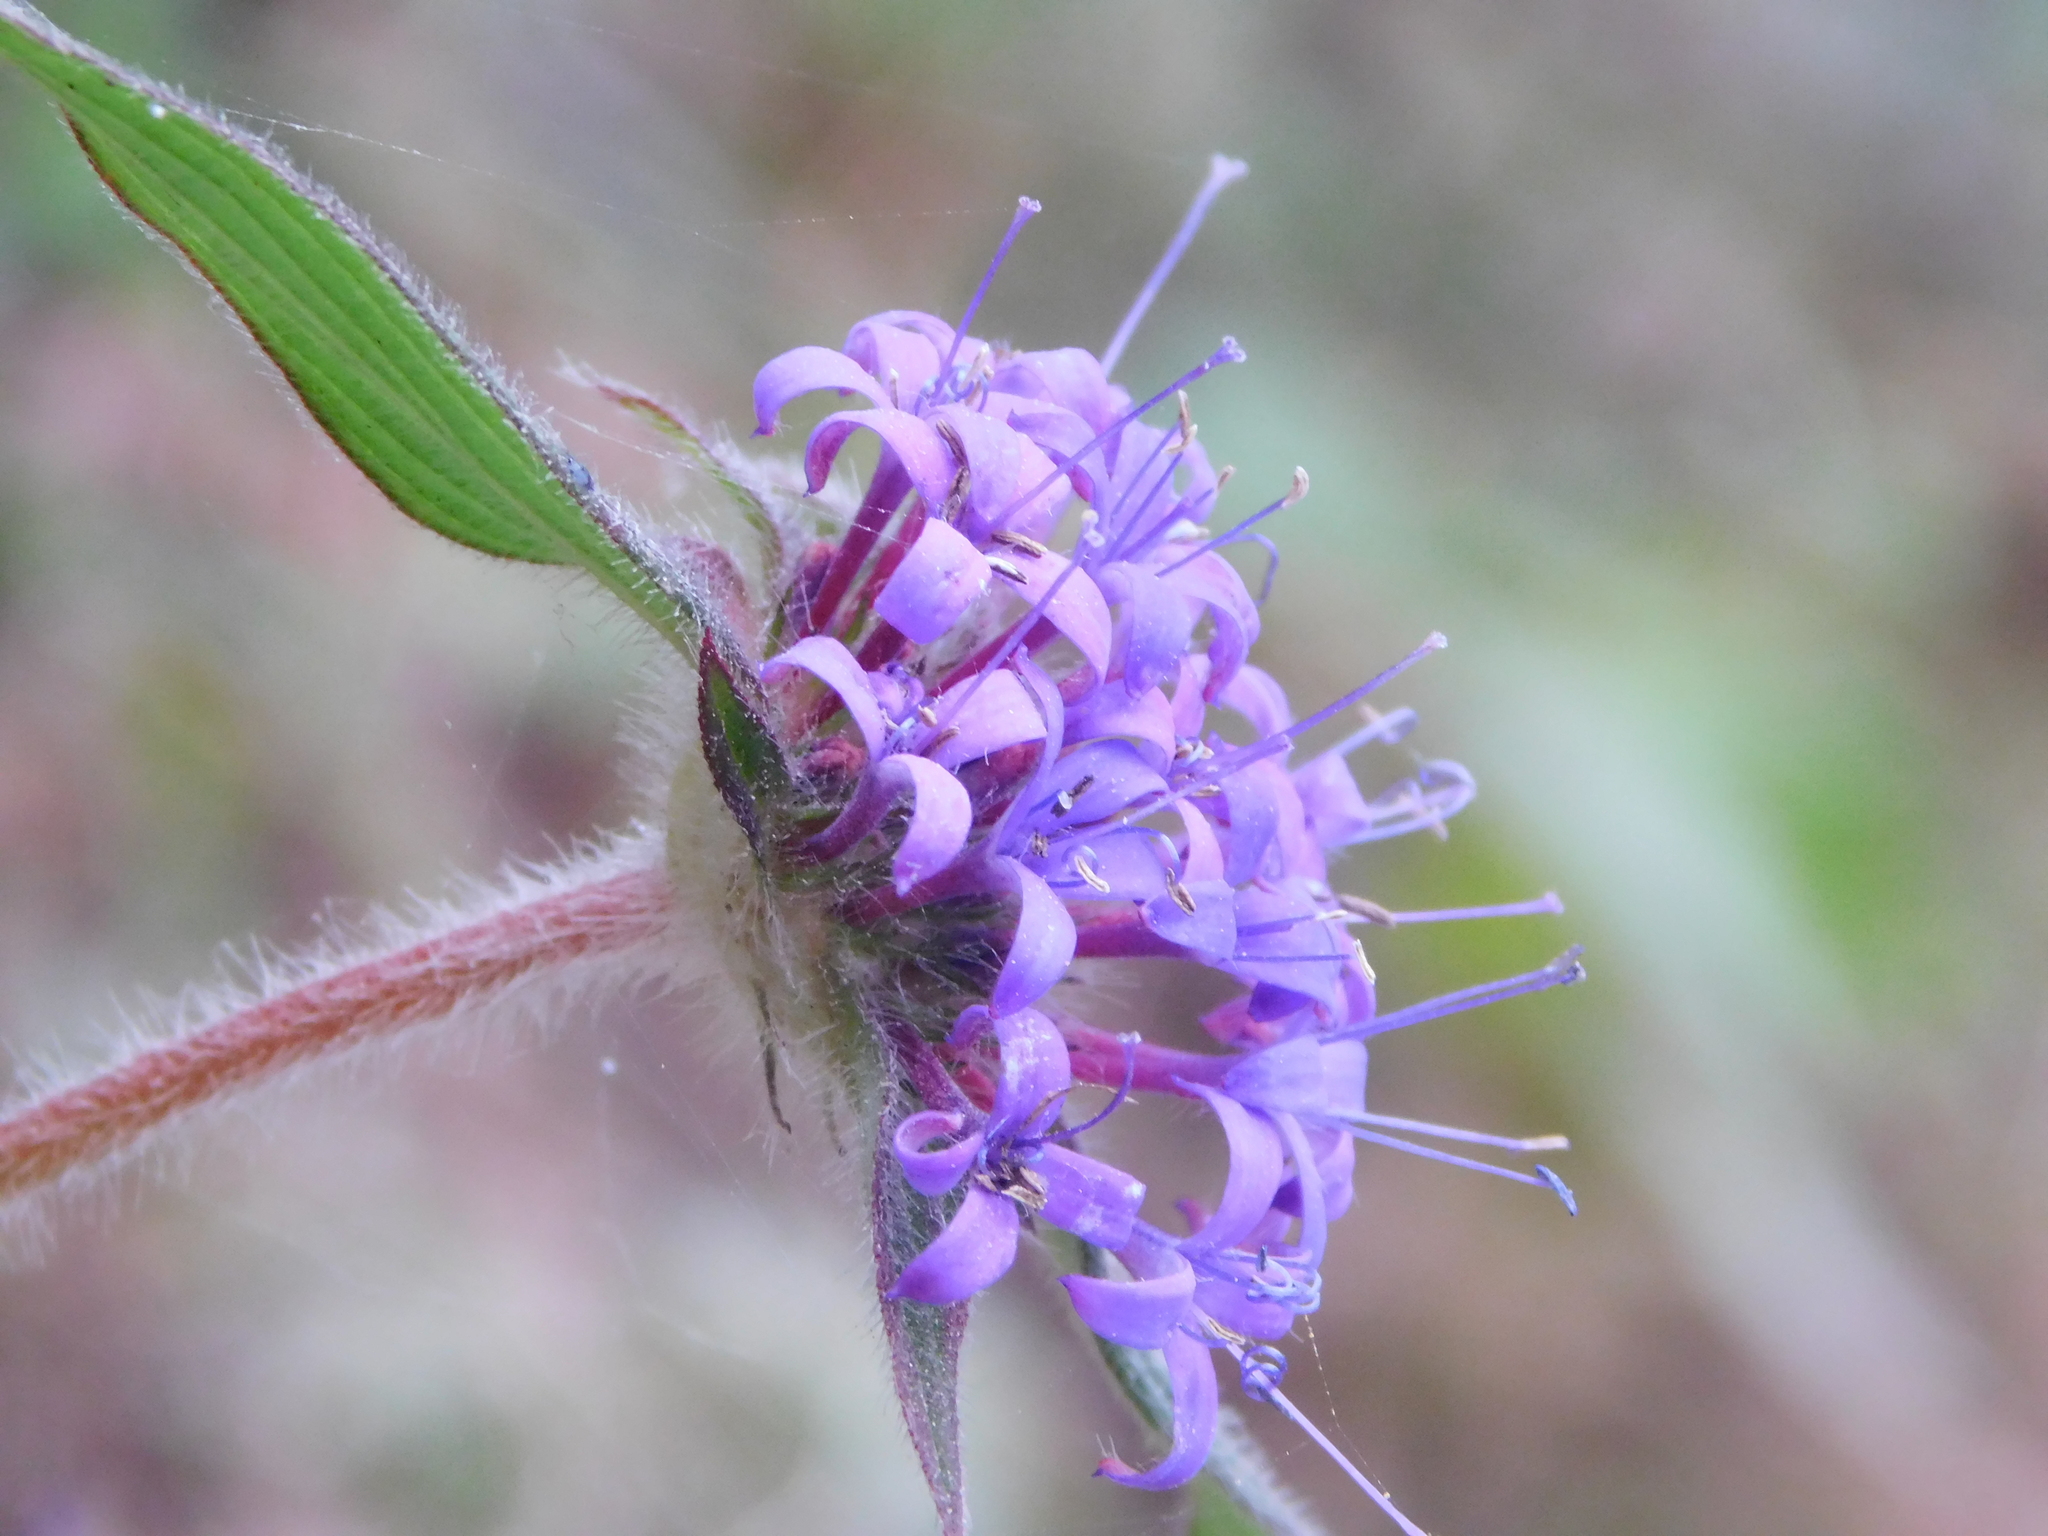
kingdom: Plantae
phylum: Tracheophyta
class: Magnoliopsida
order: Gentianales
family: Rubiaceae
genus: Crusea
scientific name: Crusea hispida
